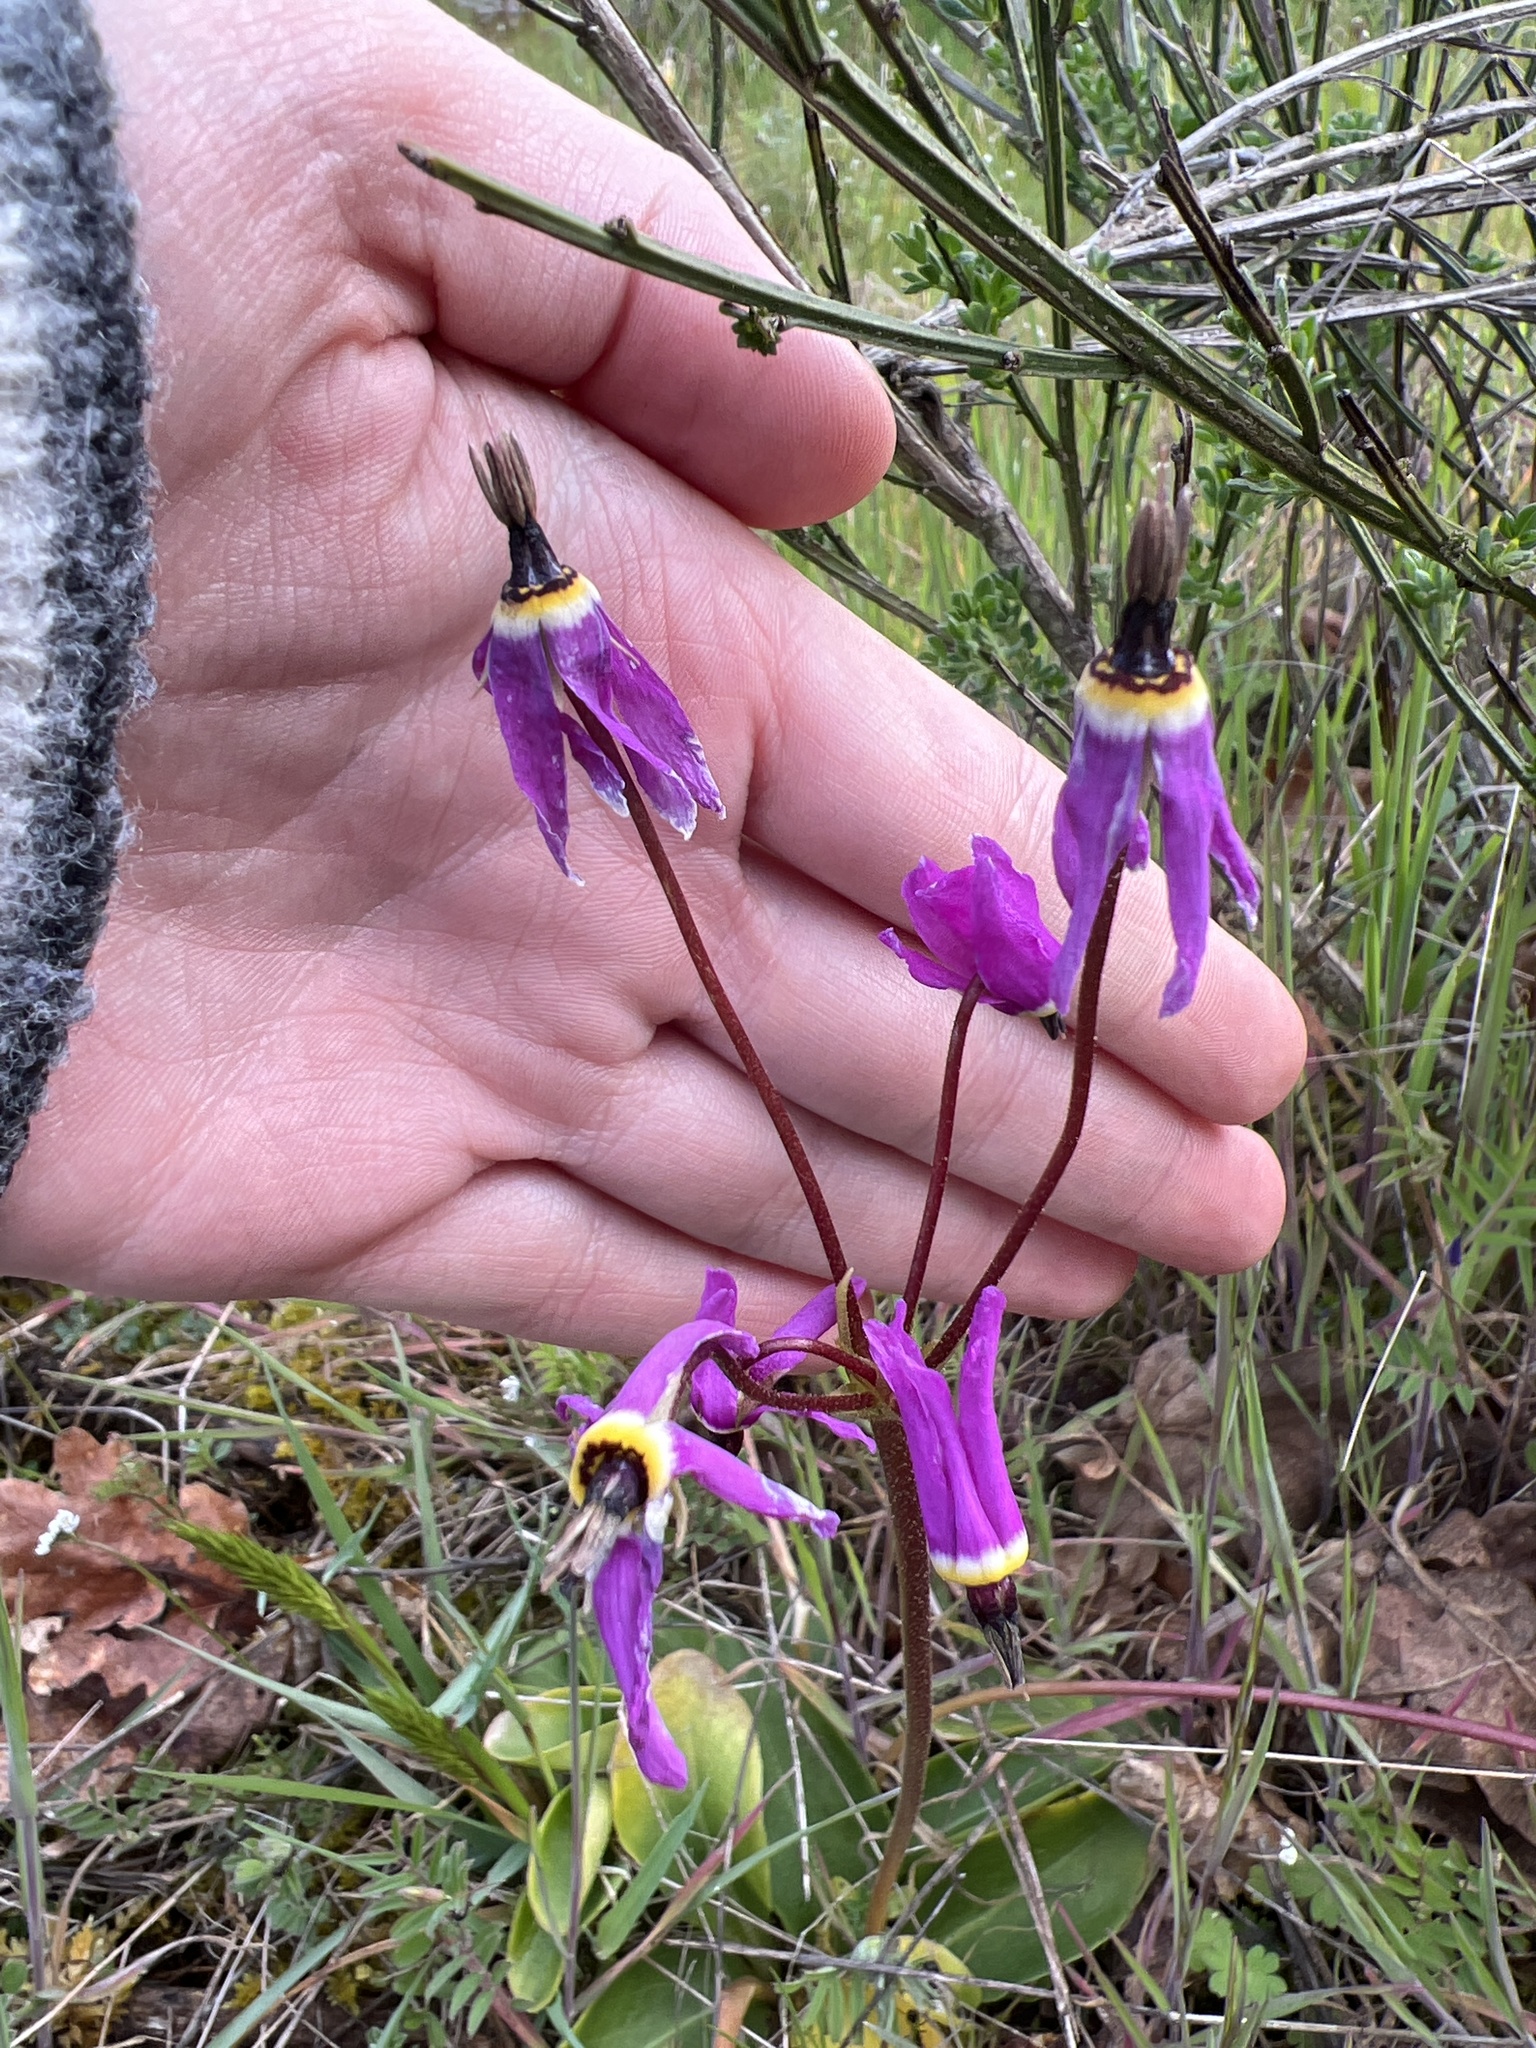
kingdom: Plantae
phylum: Tracheophyta
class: Magnoliopsida
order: Ericales
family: Primulaceae
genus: Dodecatheon
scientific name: Dodecatheon hendersonii
